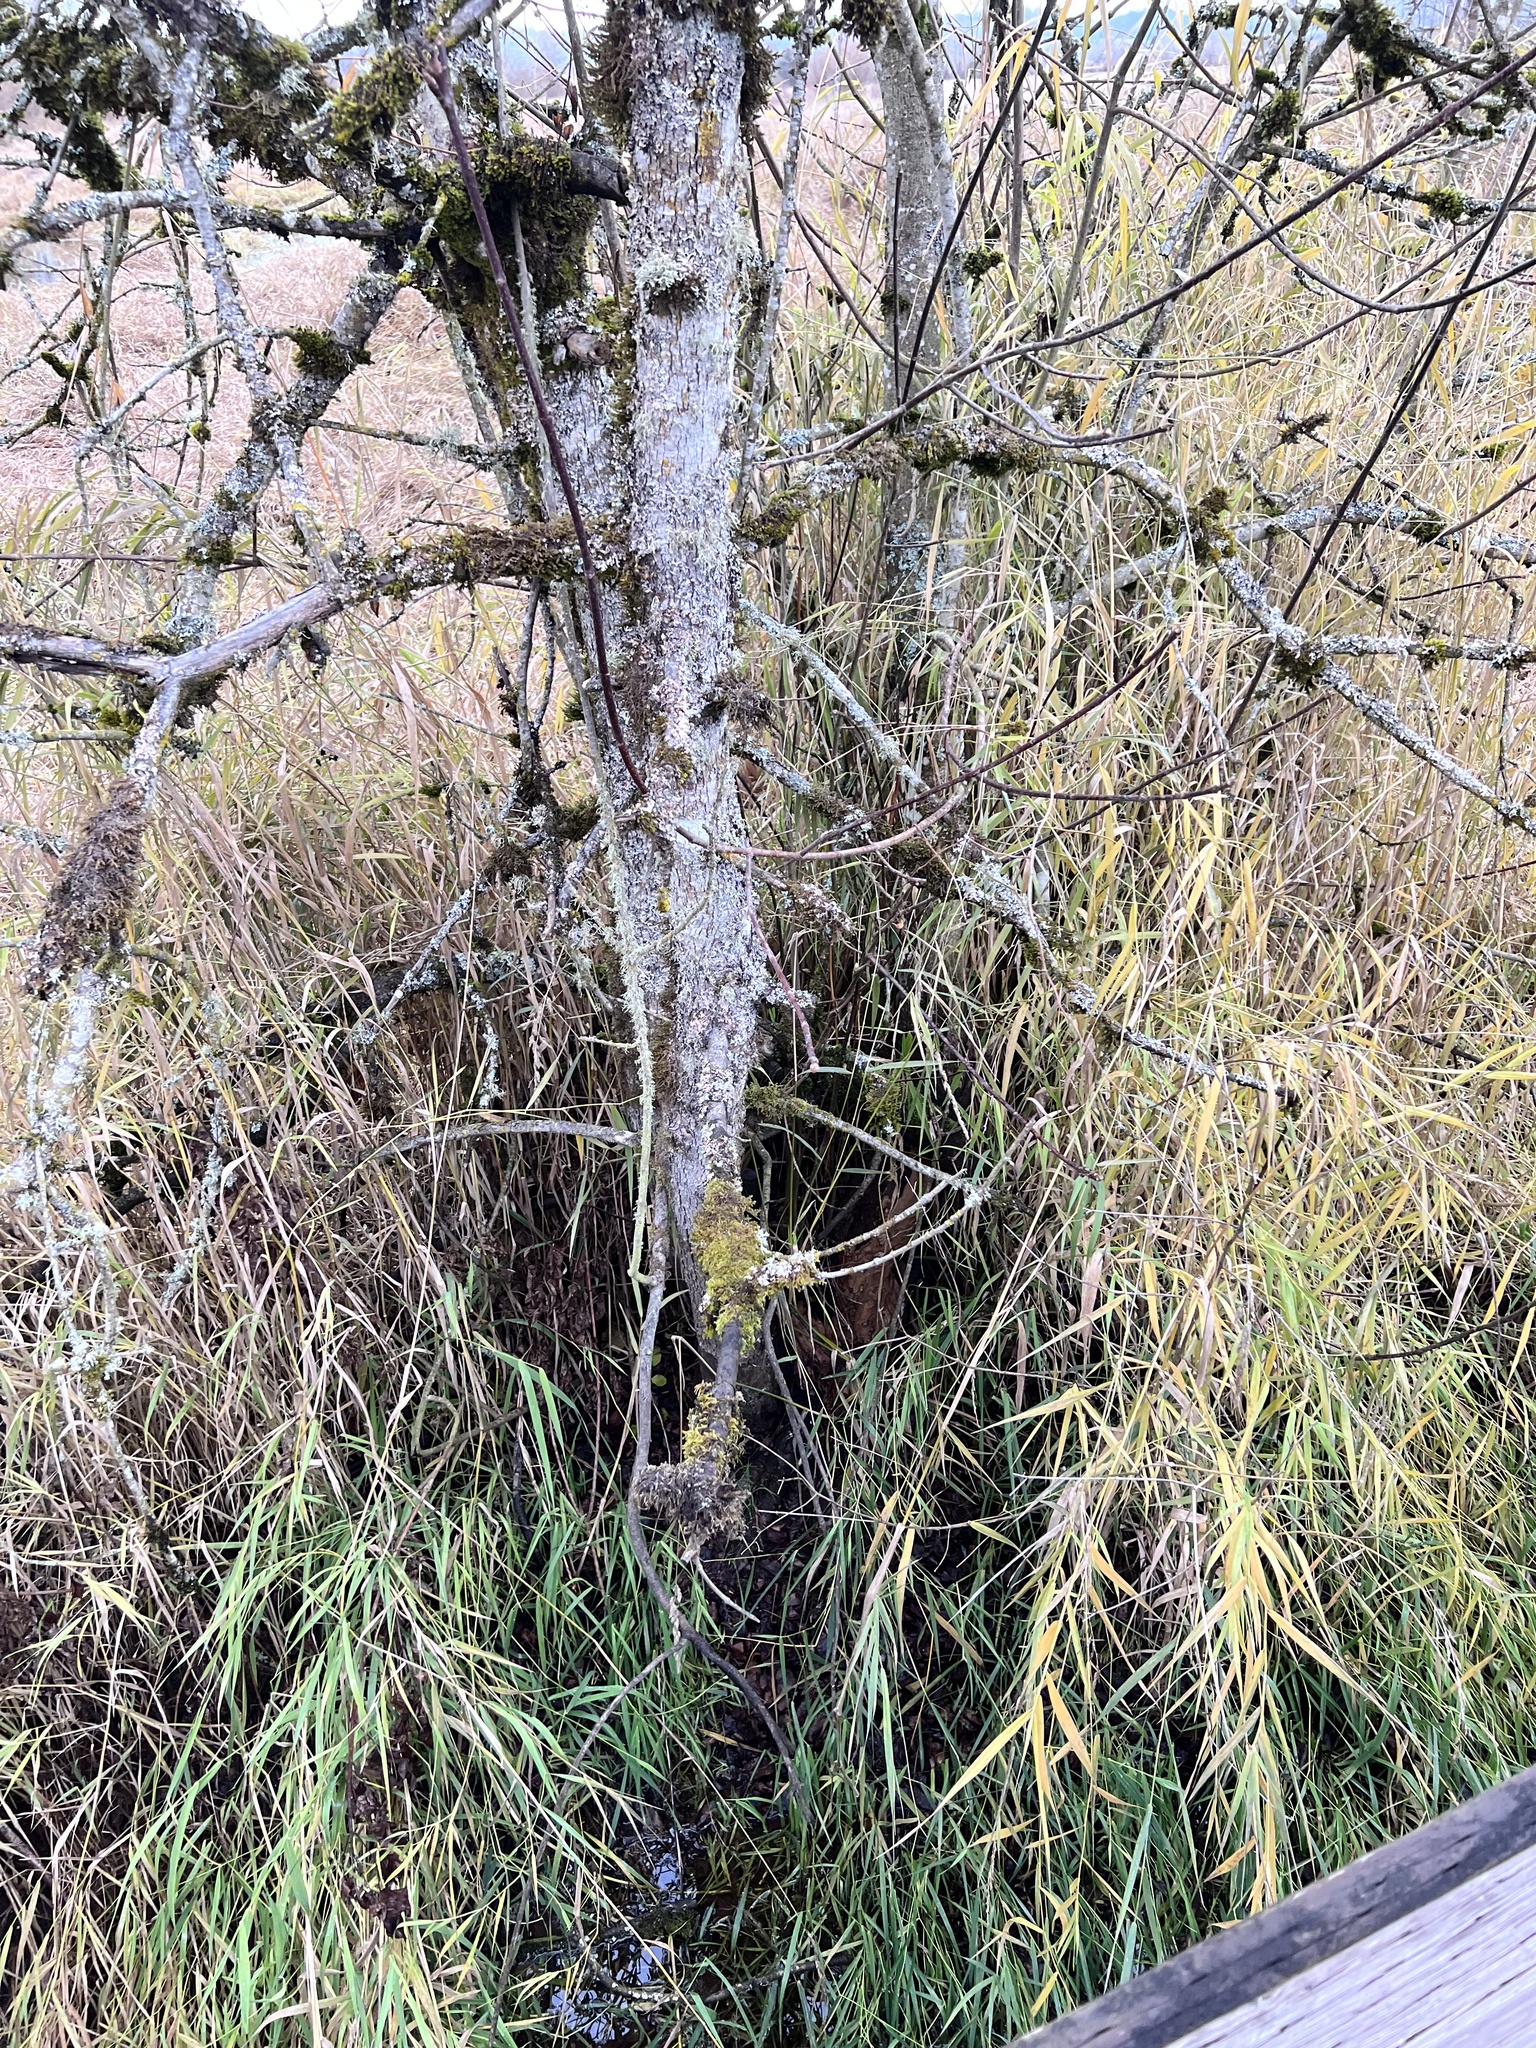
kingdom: Animalia
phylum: Chordata
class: Mammalia
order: Rodentia
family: Castoridae
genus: Castor
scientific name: Castor canadensis
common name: American beaver
